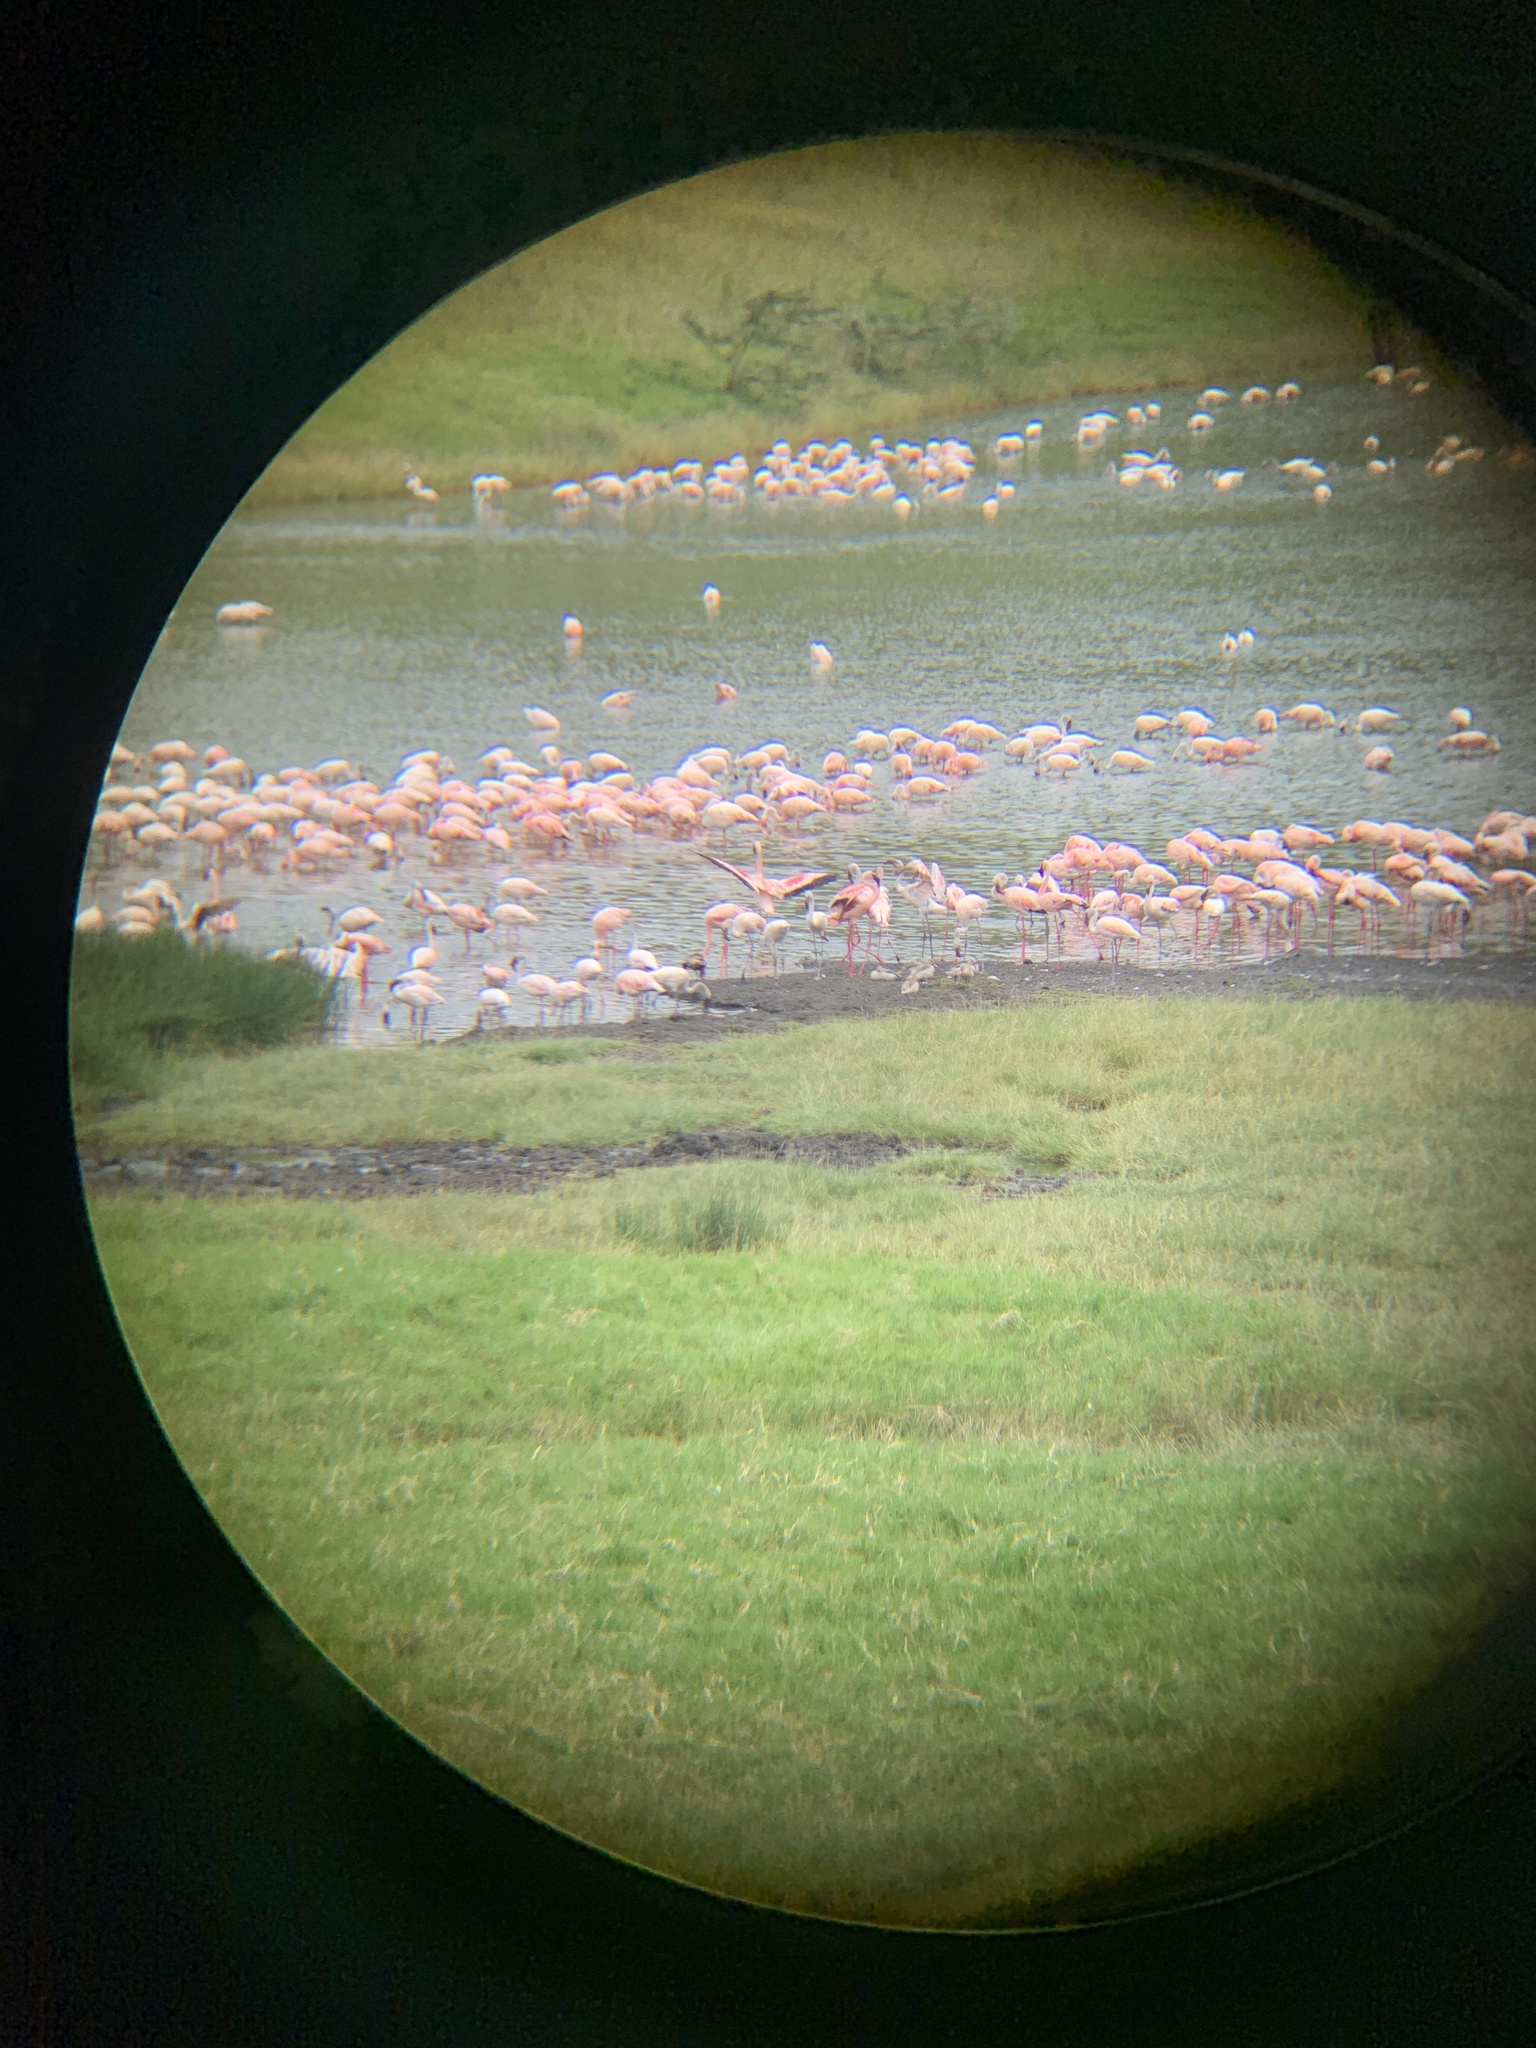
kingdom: Animalia
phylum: Chordata
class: Aves
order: Phoenicopteriformes
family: Phoenicopteridae
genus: Phoeniconaias
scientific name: Phoeniconaias minor
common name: Lesser flamingo
